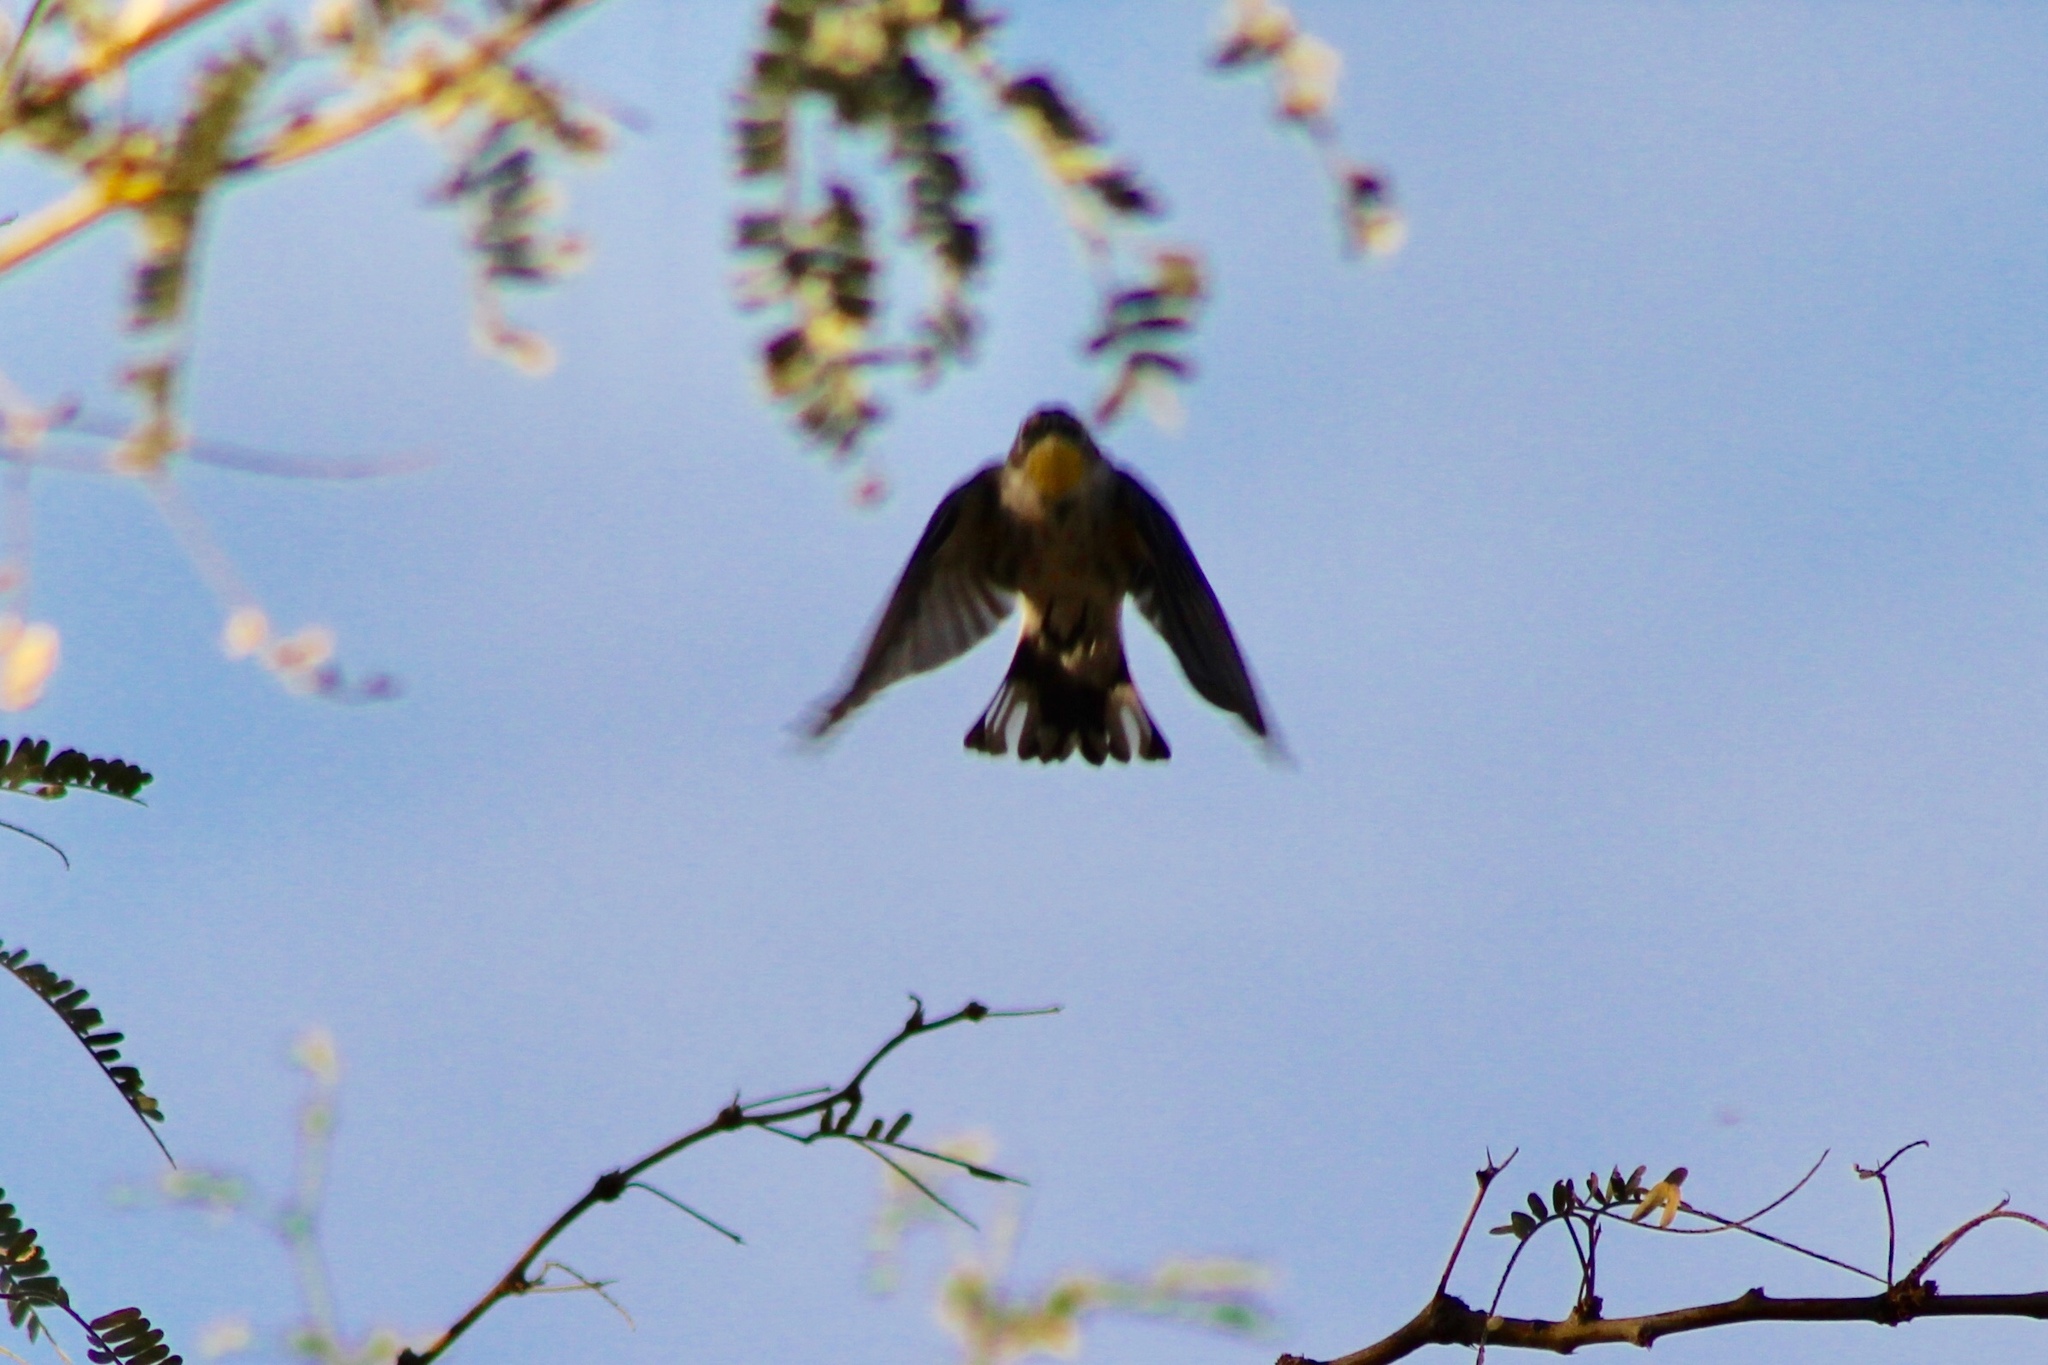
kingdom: Animalia
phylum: Chordata
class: Aves
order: Passeriformes
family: Parulidae
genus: Setophaga
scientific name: Setophaga coronata
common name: Myrtle warbler
